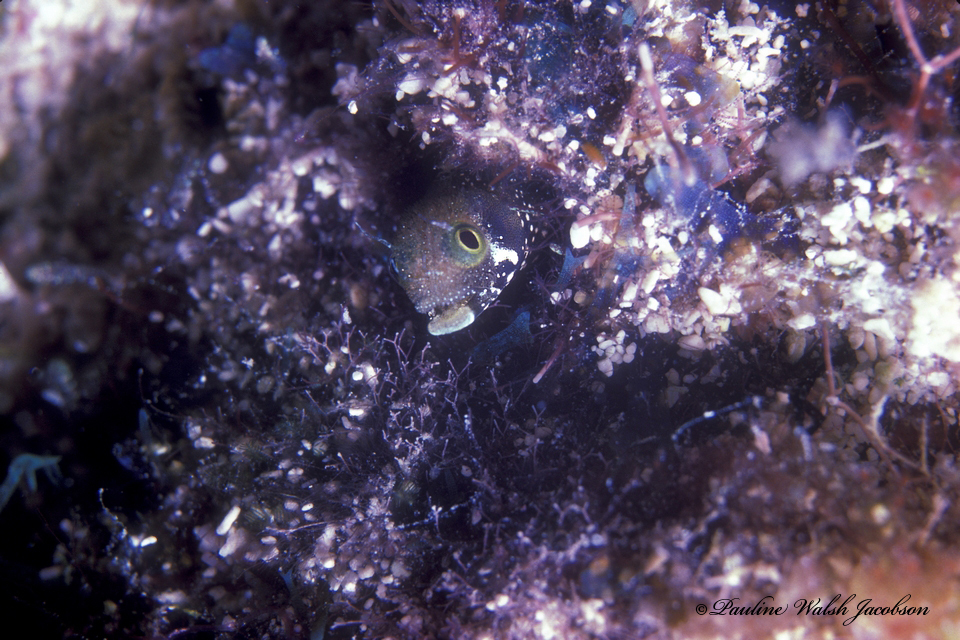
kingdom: Animalia
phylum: Chordata
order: Perciformes
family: Chaenopsidae
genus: Acanthemblemaria
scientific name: Acanthemblemaria spinosa
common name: Spinyhead blenny
